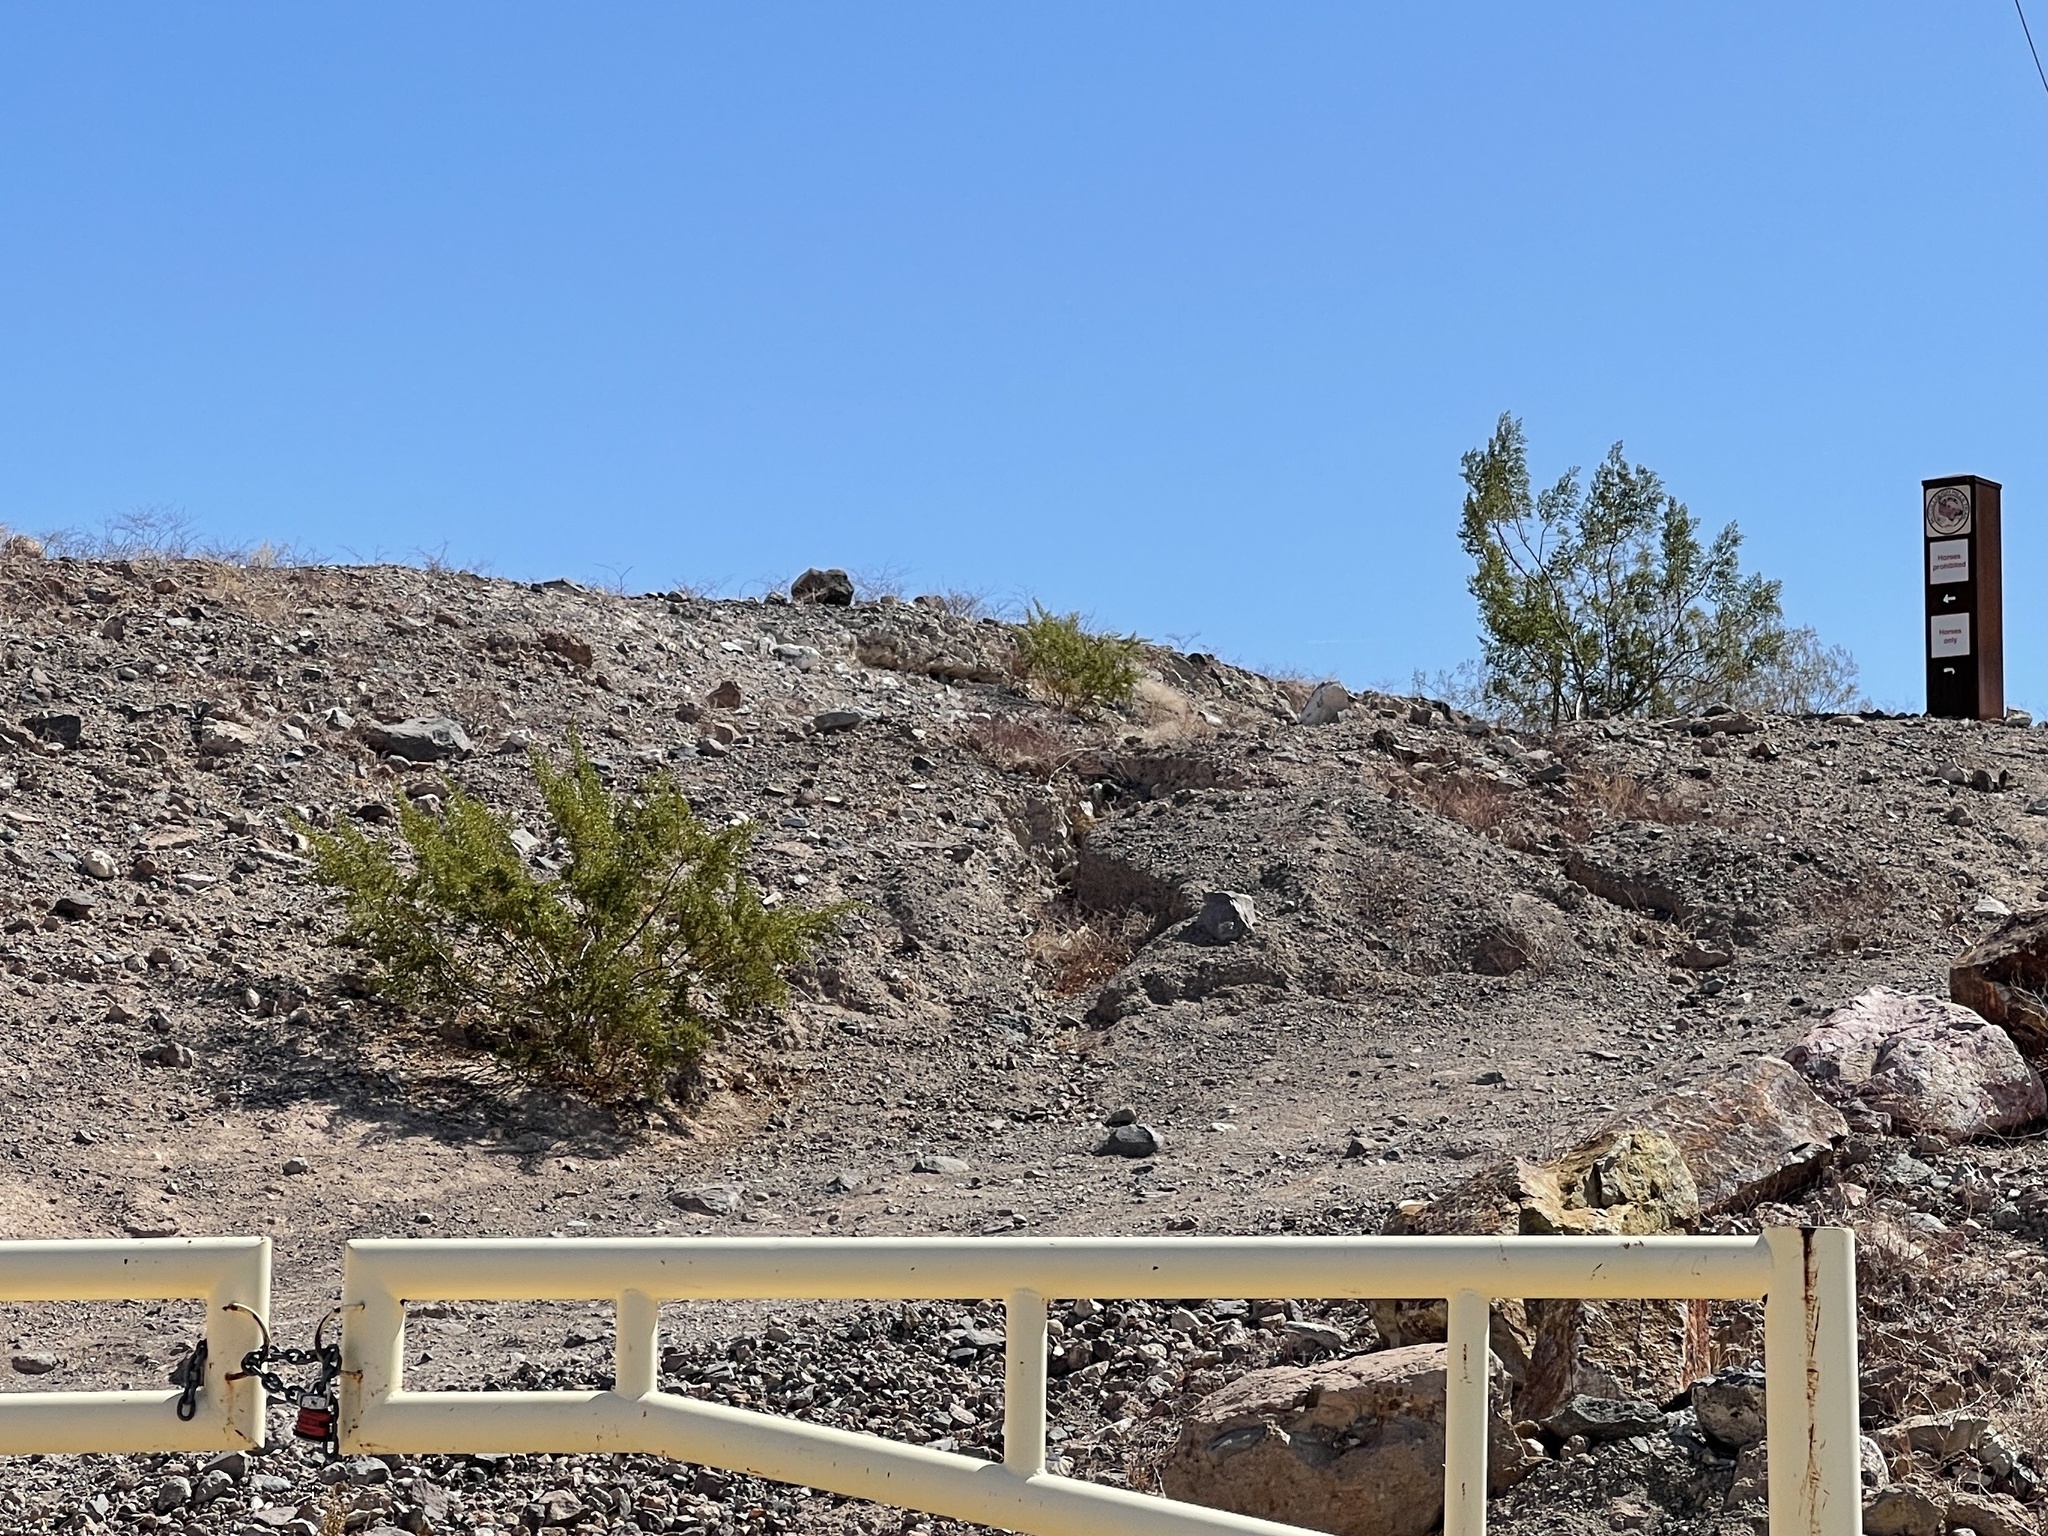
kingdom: Plantae
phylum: Tracheophyta
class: Magnoliopsida
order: Zygophyllales
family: Zygophyllaceae
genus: Larrea
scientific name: Larrea tridentata
